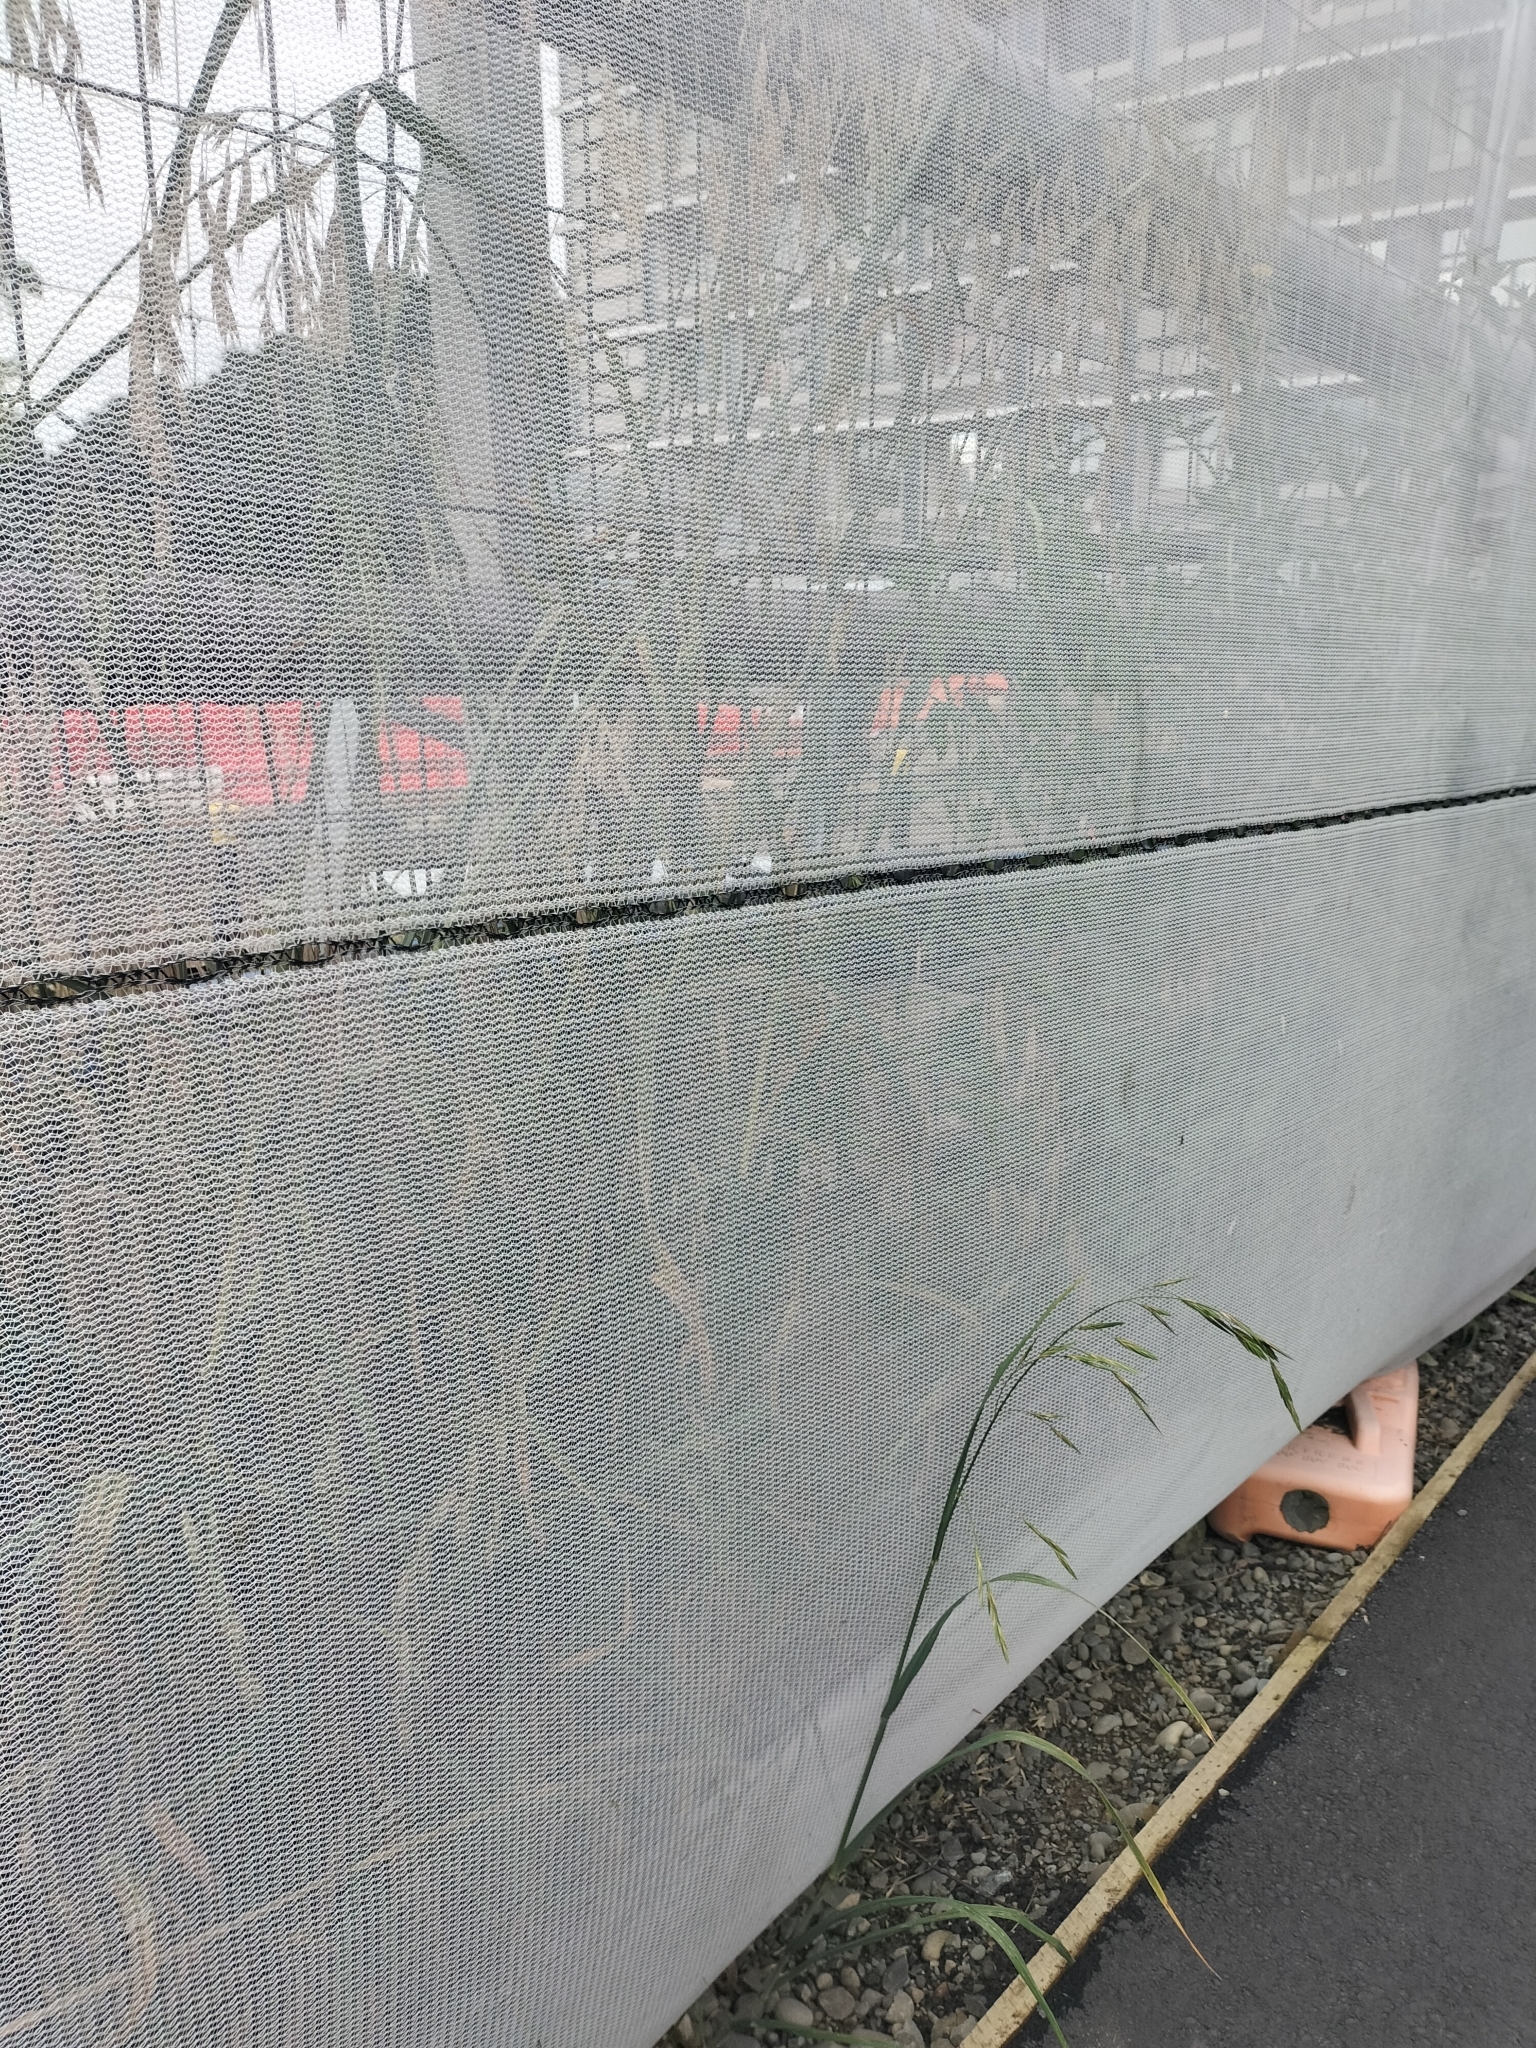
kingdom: Plantae
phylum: Tracheophyta
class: Liliopsida
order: Poales
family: Poaceae
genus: Bromus
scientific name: Bromus catharticus
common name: Rescuegrass
